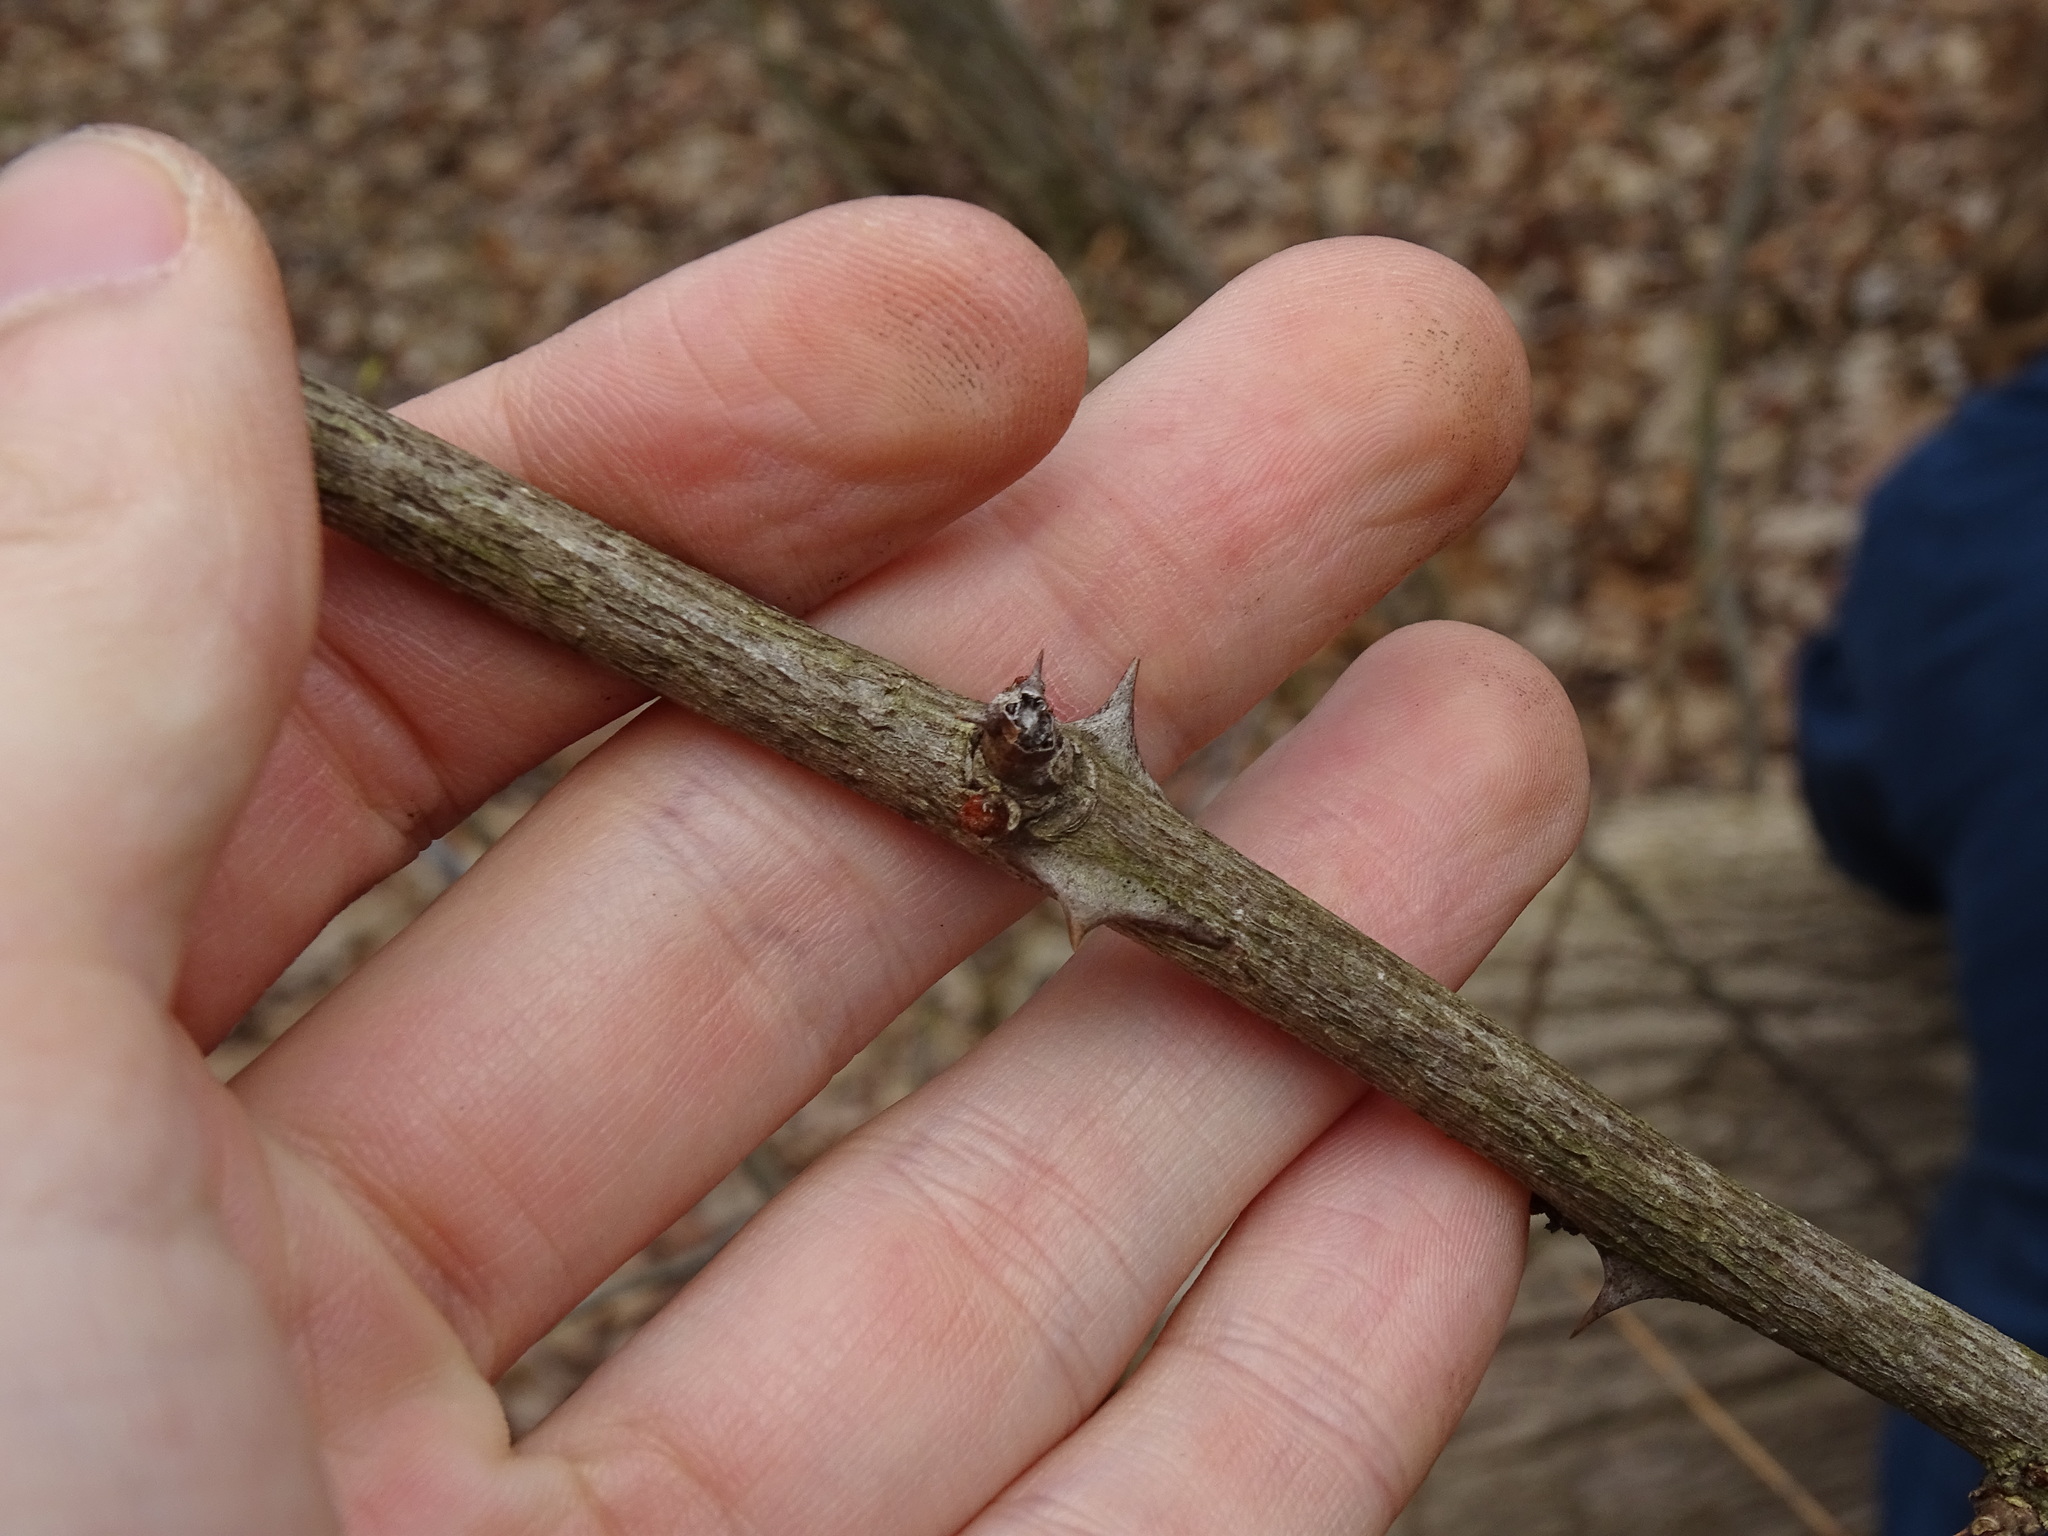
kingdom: Plantae
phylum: Tracheophyta
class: Magnoliopsida
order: Sapindales
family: Rutaceae
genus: Zanthoxylum
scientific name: Zanthoxylum americanum
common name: Northern prickly-ash
